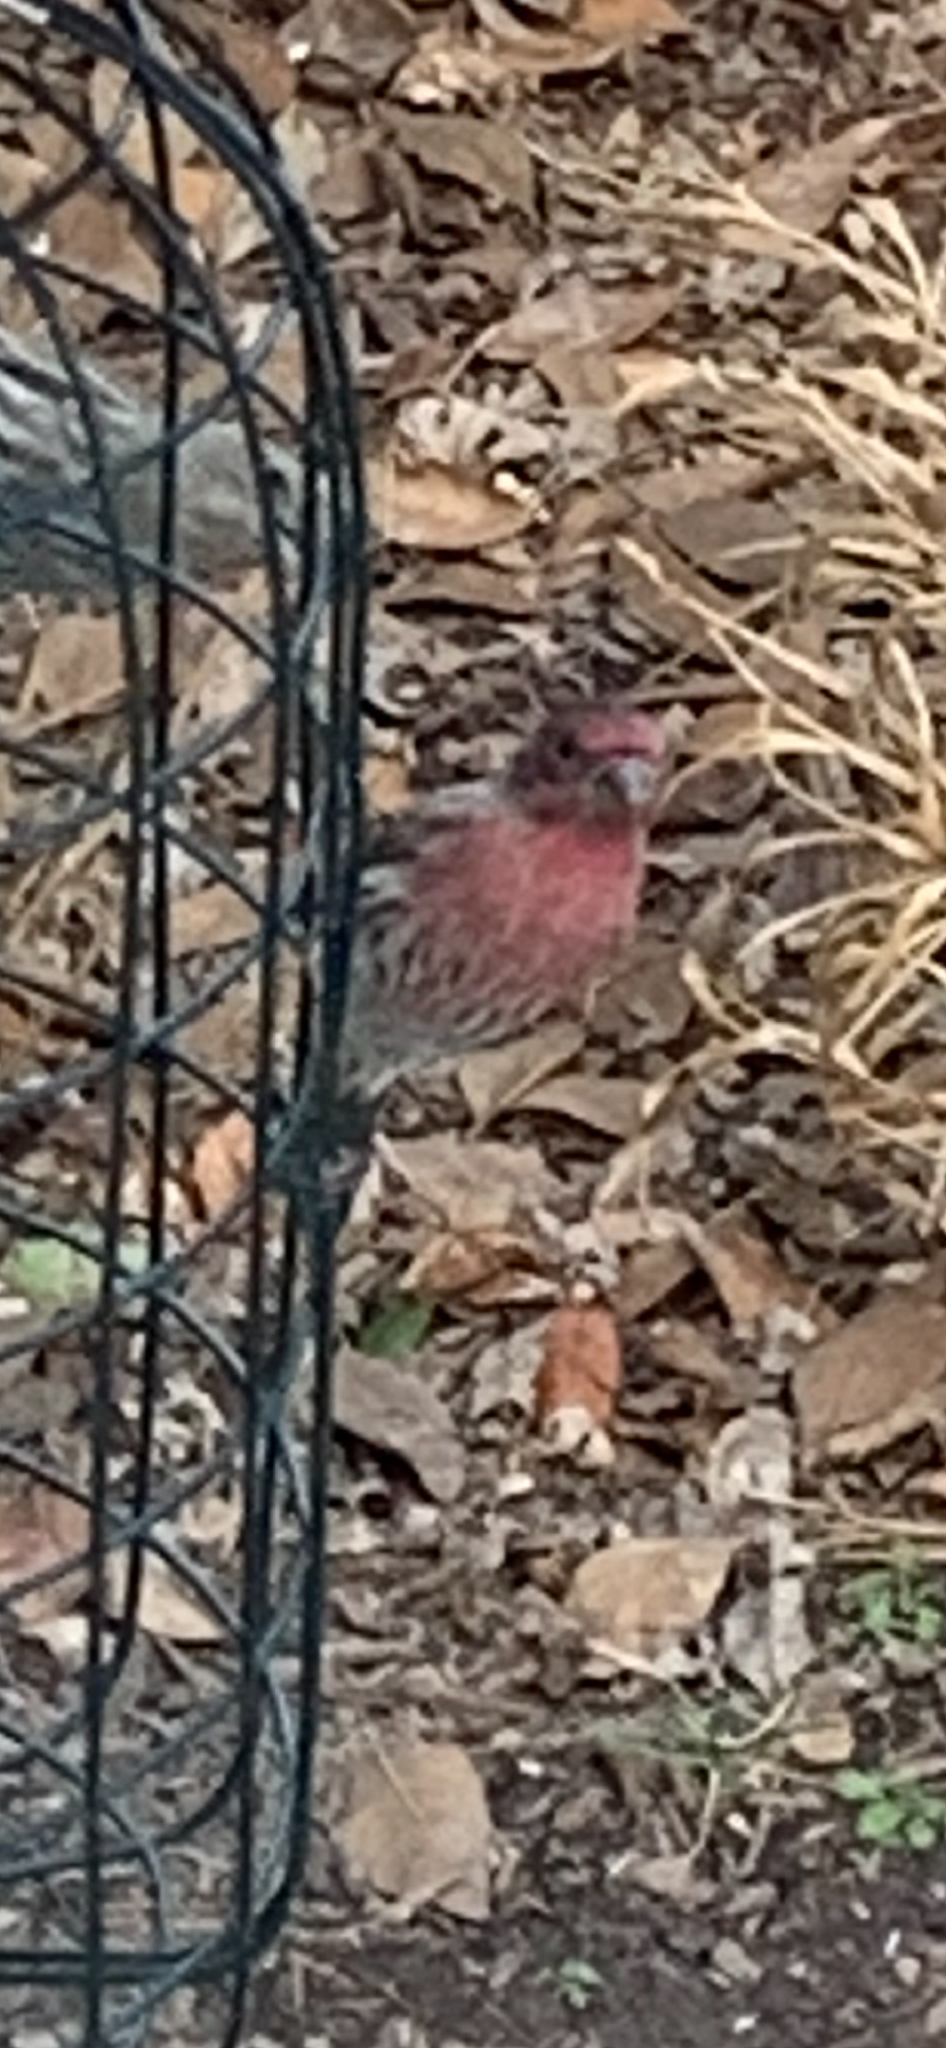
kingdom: Animalia
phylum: Chordata
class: Aves
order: Passeriformes
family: Fringillidae
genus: Haemorhous
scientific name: Haemorhous mexicanus
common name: House finch
